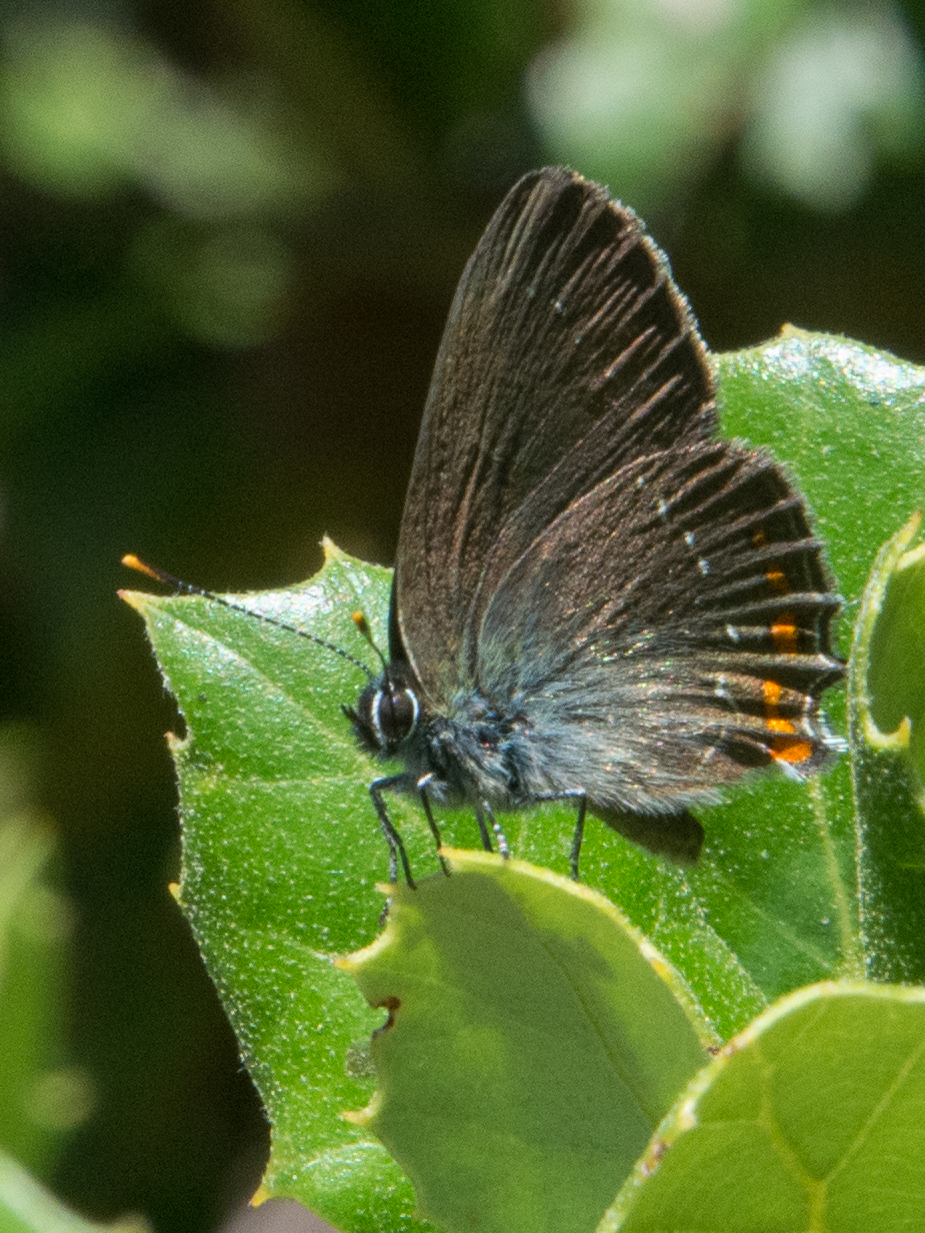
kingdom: Animalia
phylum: Arthropoda
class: Insecta
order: Lepidoptera
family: Lycaenidae
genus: Nordmannia
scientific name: Nordmannia ilicis
